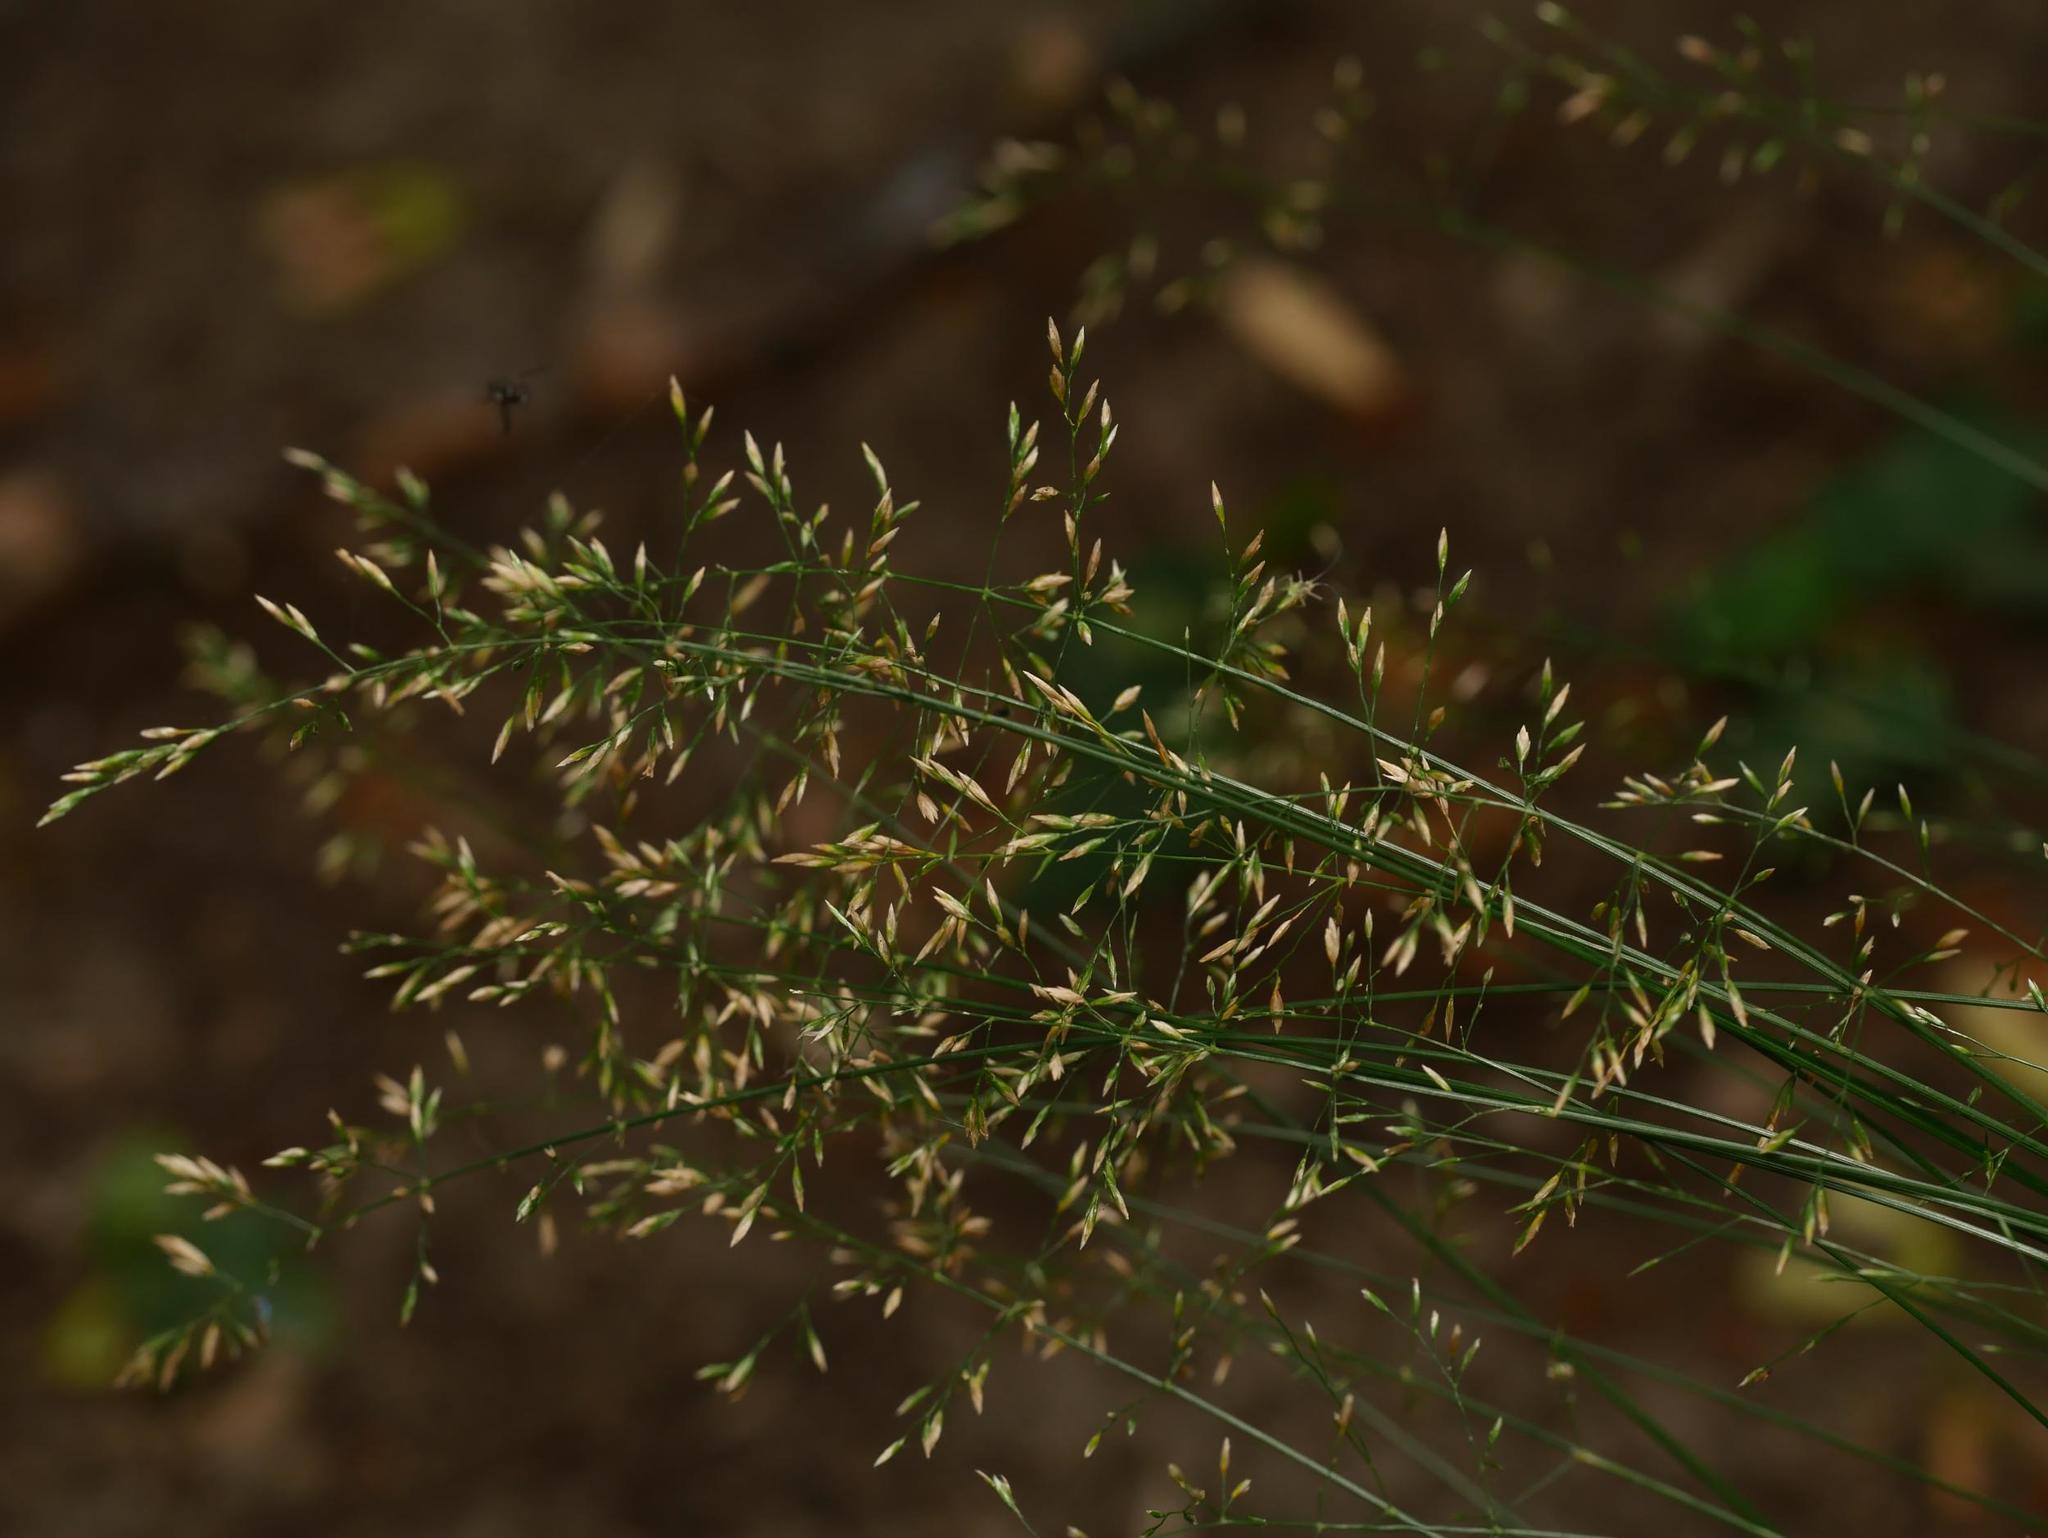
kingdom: Plantae
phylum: Tracheophyta
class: Liliopsida
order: Poales
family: Poaceae
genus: Poa
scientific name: Poa nemoralis
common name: Wood bluegrass
